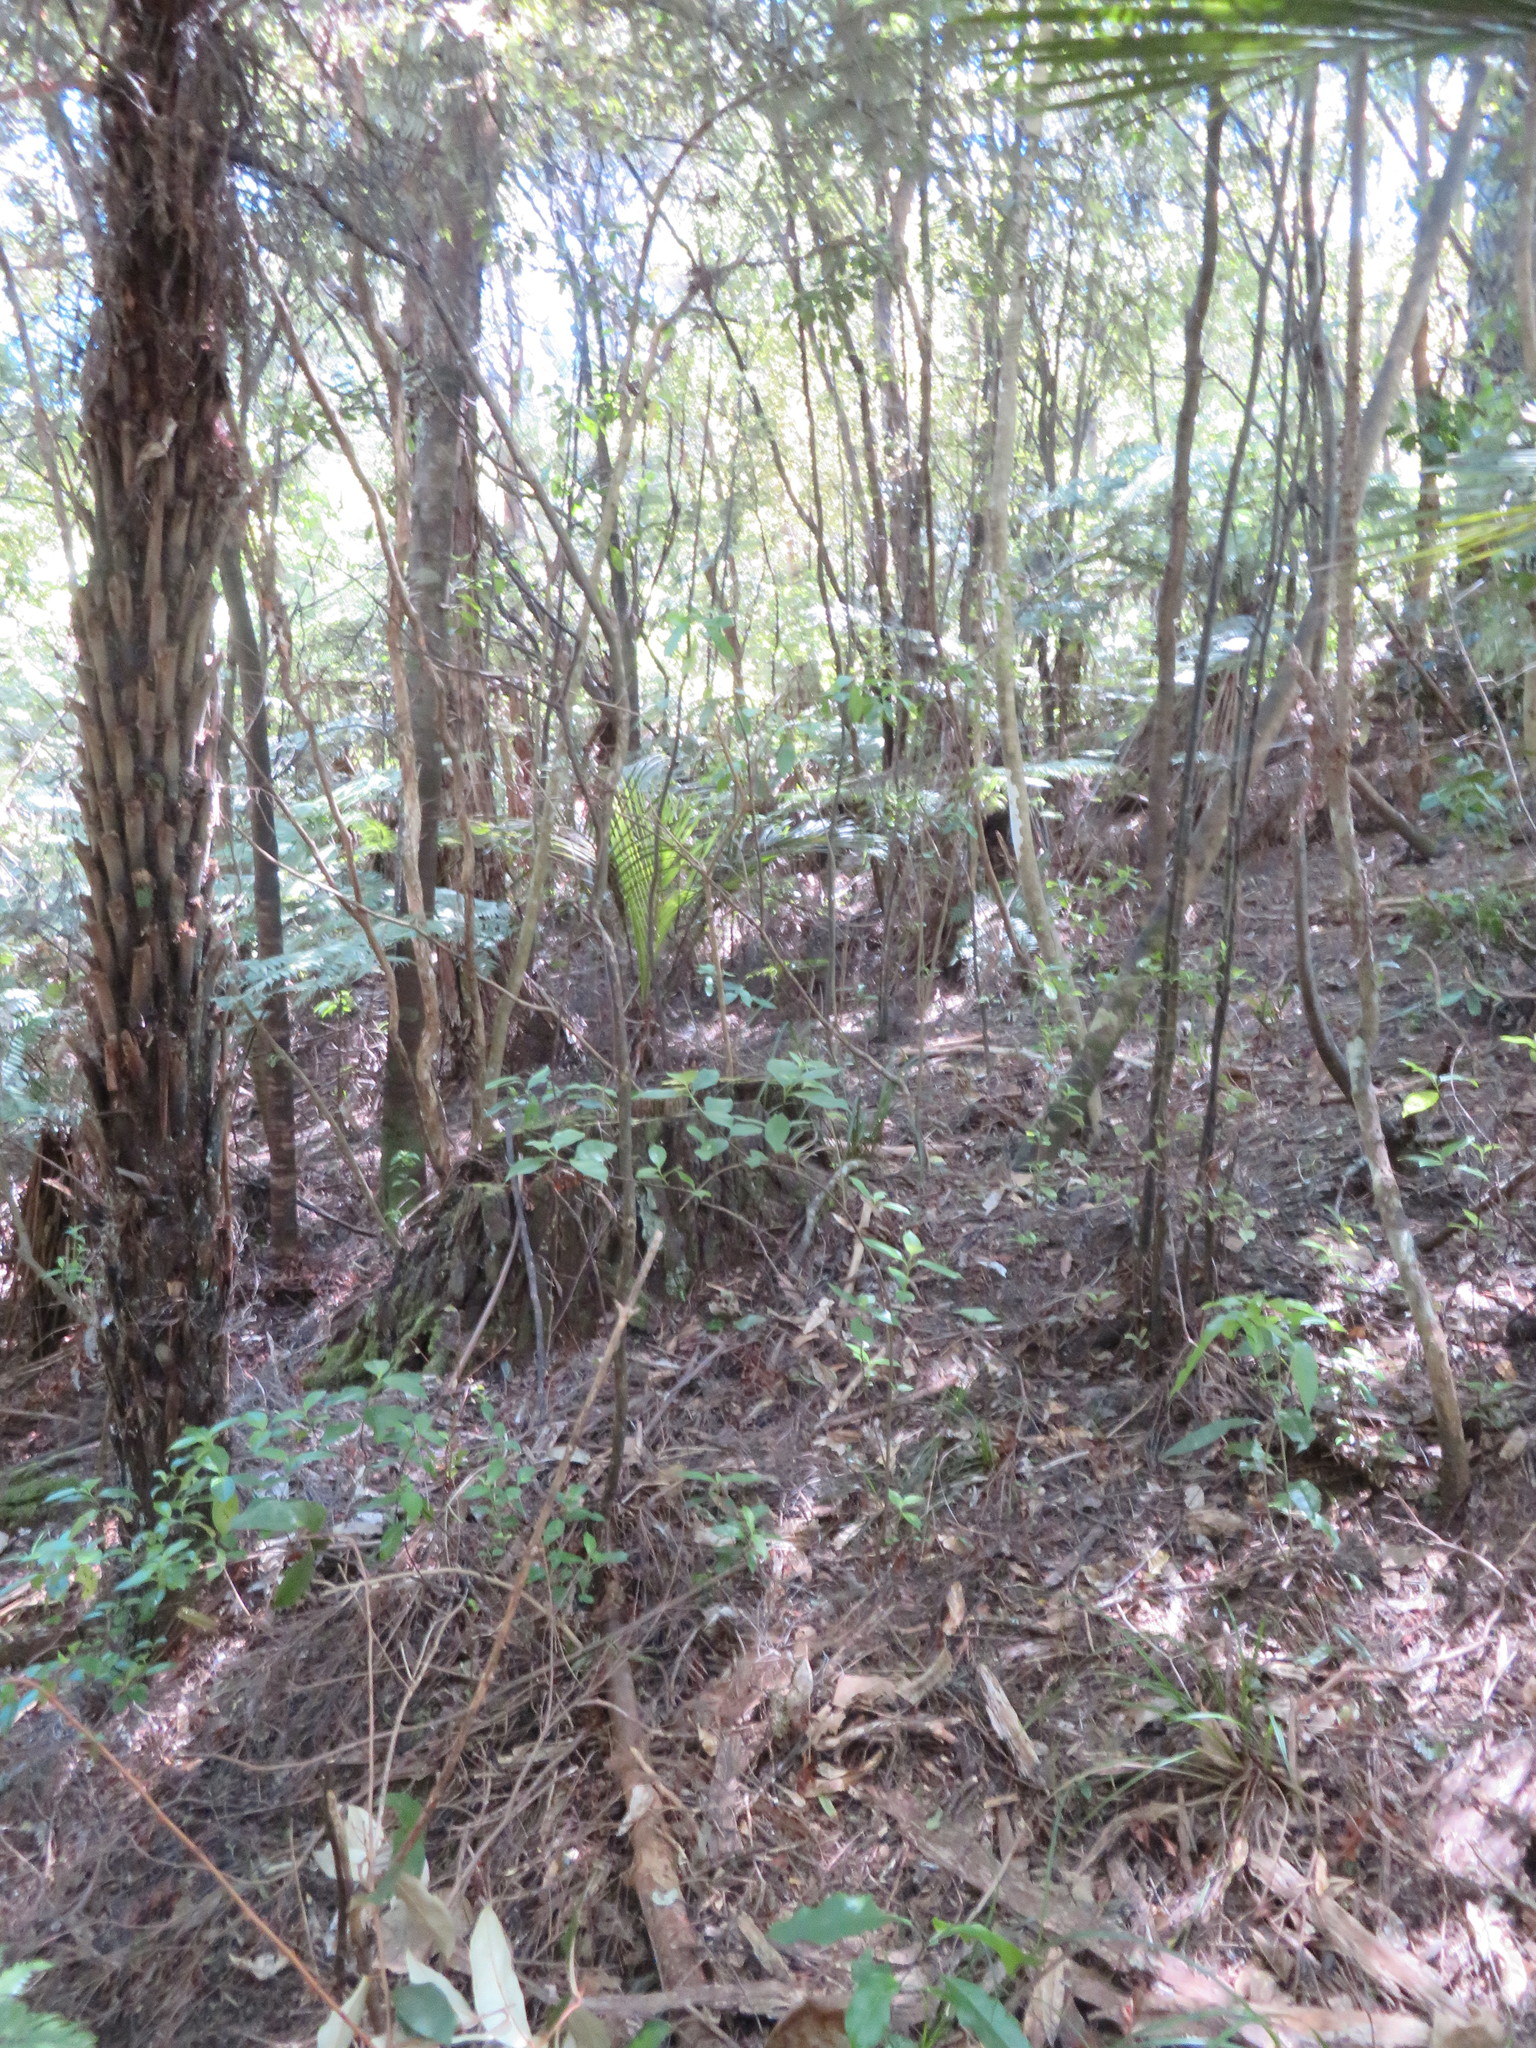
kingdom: Plantae
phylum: Tracheophyta
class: Magnoliopsida
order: Gentianales
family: Loganiaceae
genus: Geniostoma
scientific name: Geniostoma ligustrifolium
